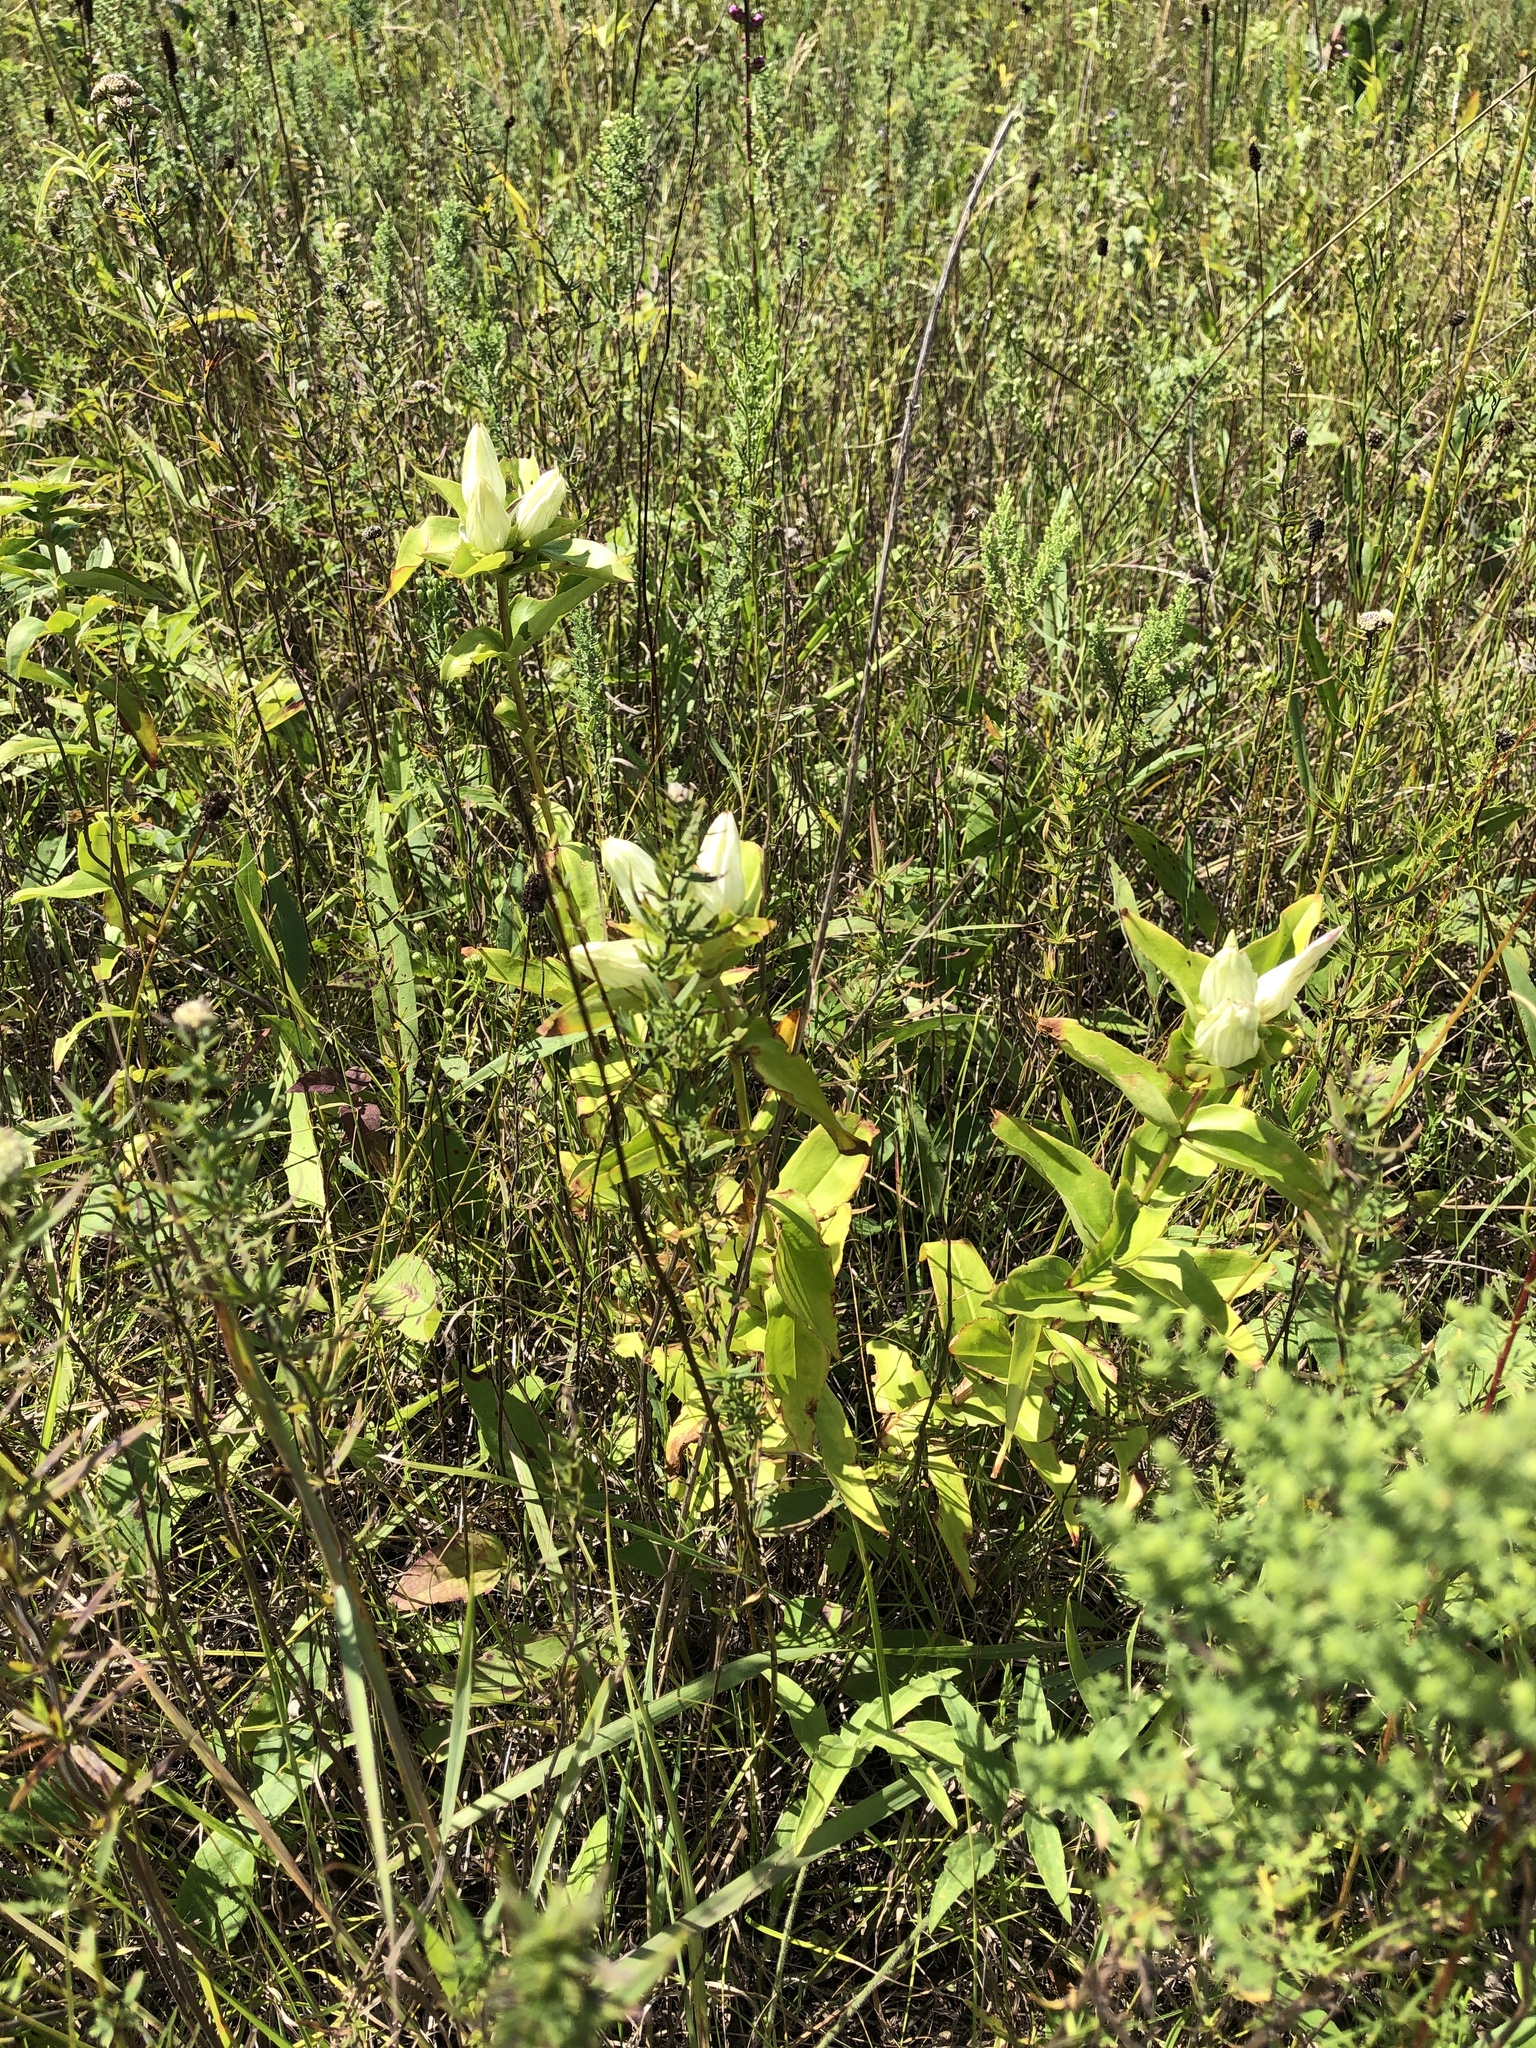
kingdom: Plantae
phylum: Tracheophyta
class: Magnoliopsida
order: Gentianales
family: Gentianaceae
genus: Gentiana
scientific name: Gentiana alba
